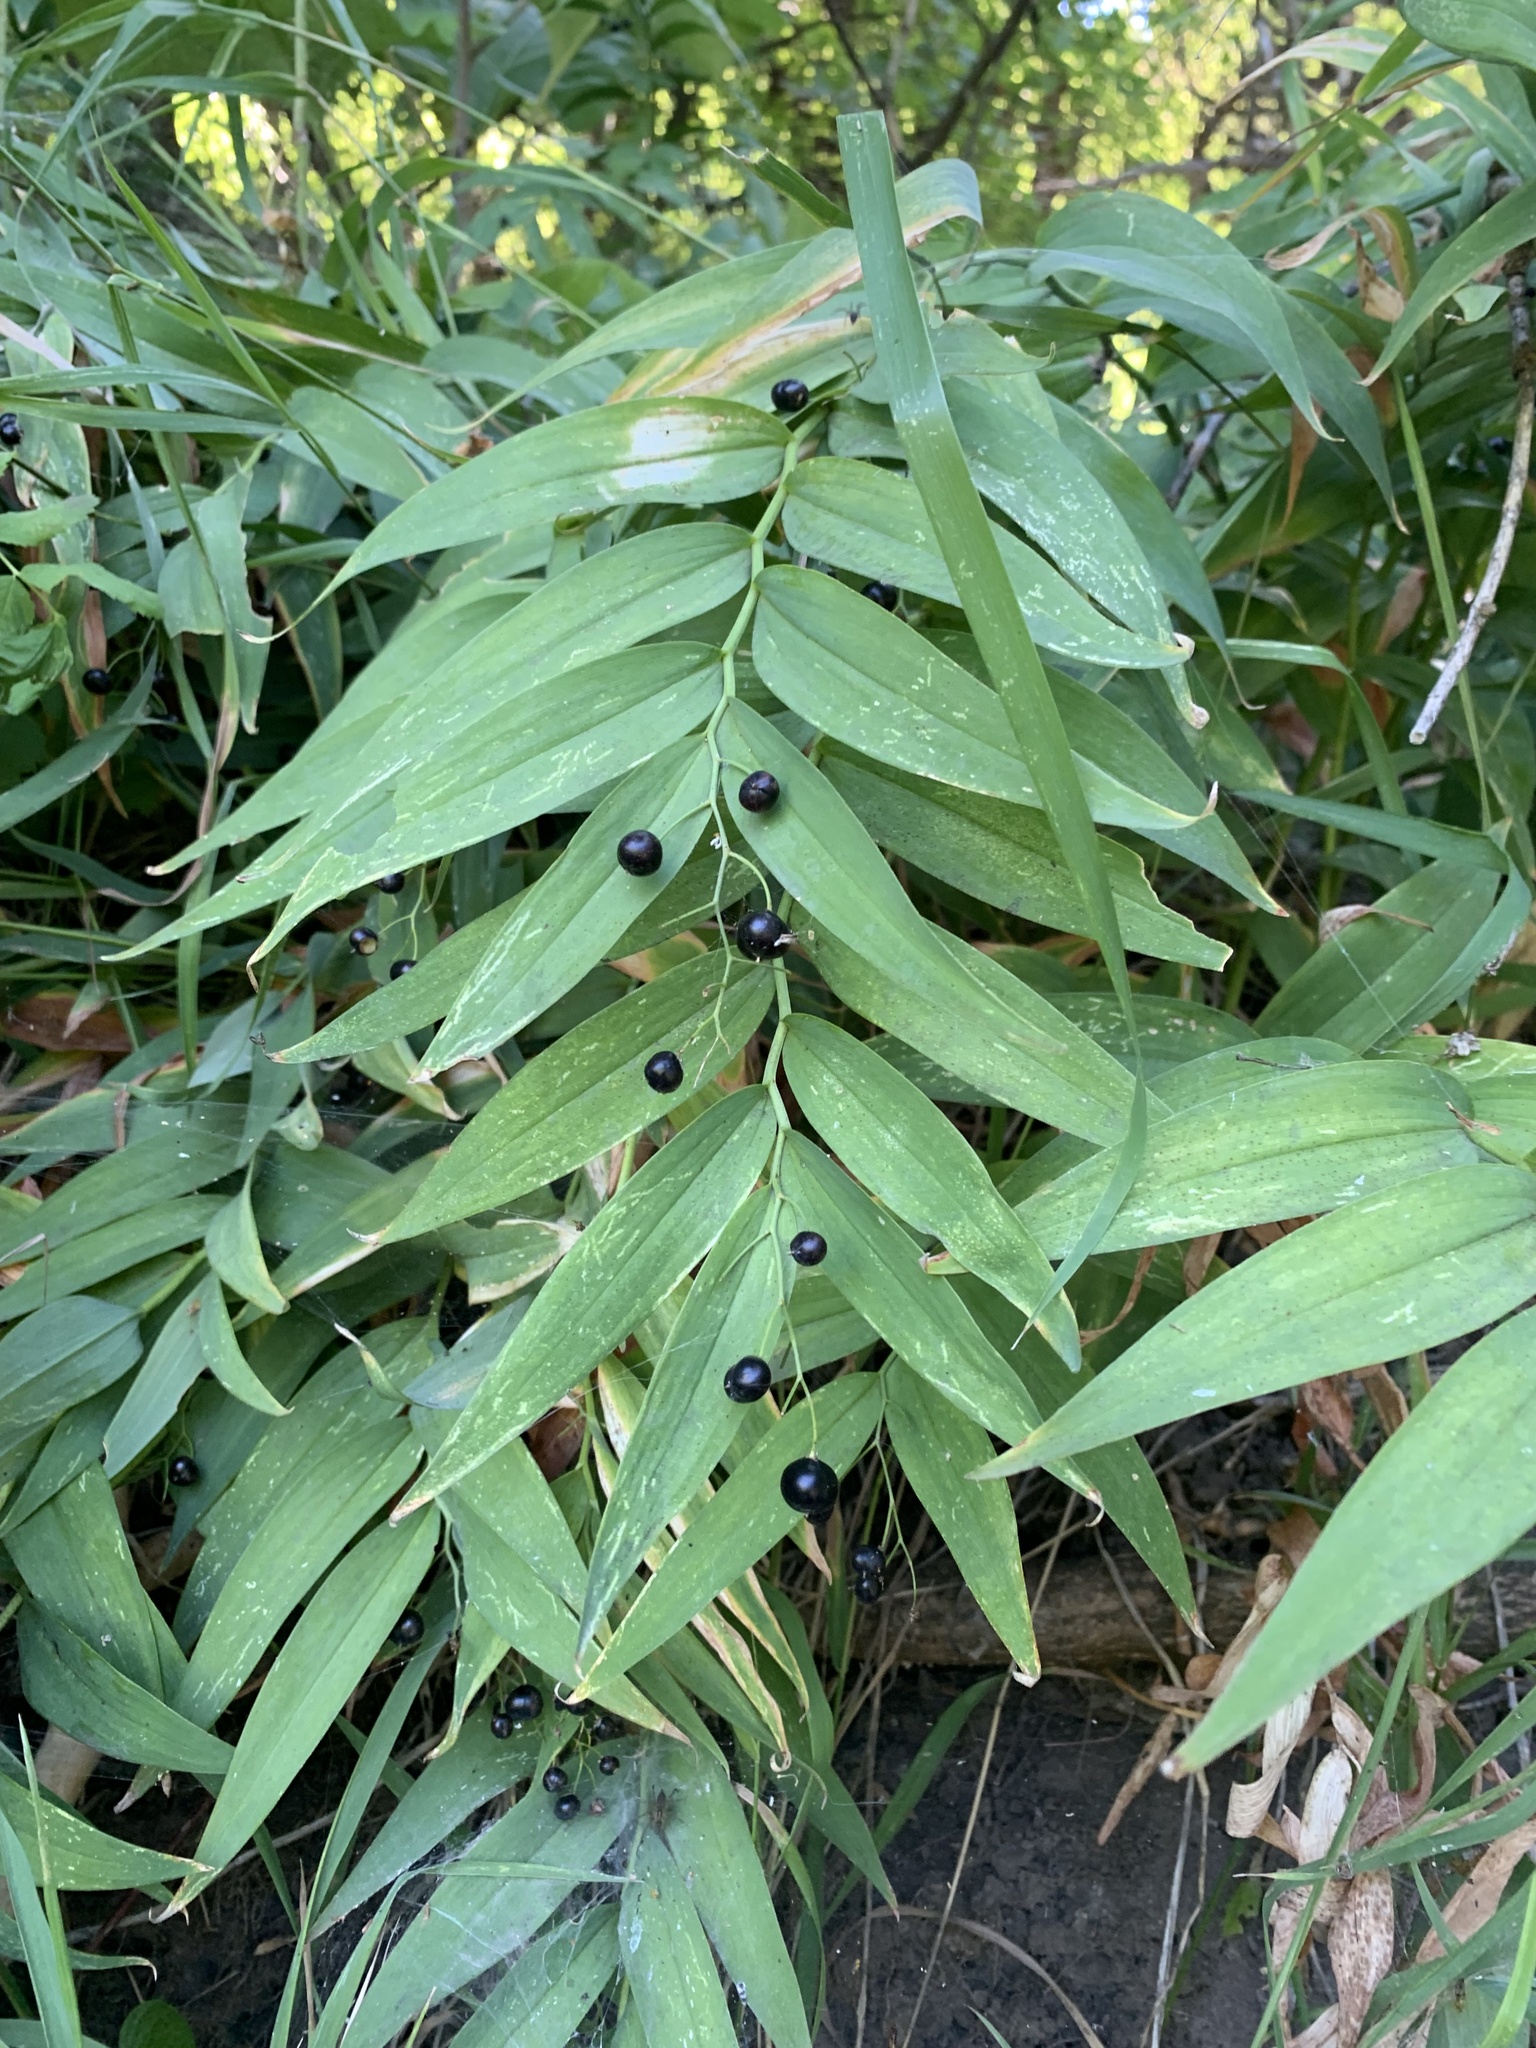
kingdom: Plantae
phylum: Tracheophyta
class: Liliopsida
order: Asparagales
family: Asparagaceae
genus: Maianthemum
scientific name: Maianthemum stellatum
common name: Little false solomon's seal
